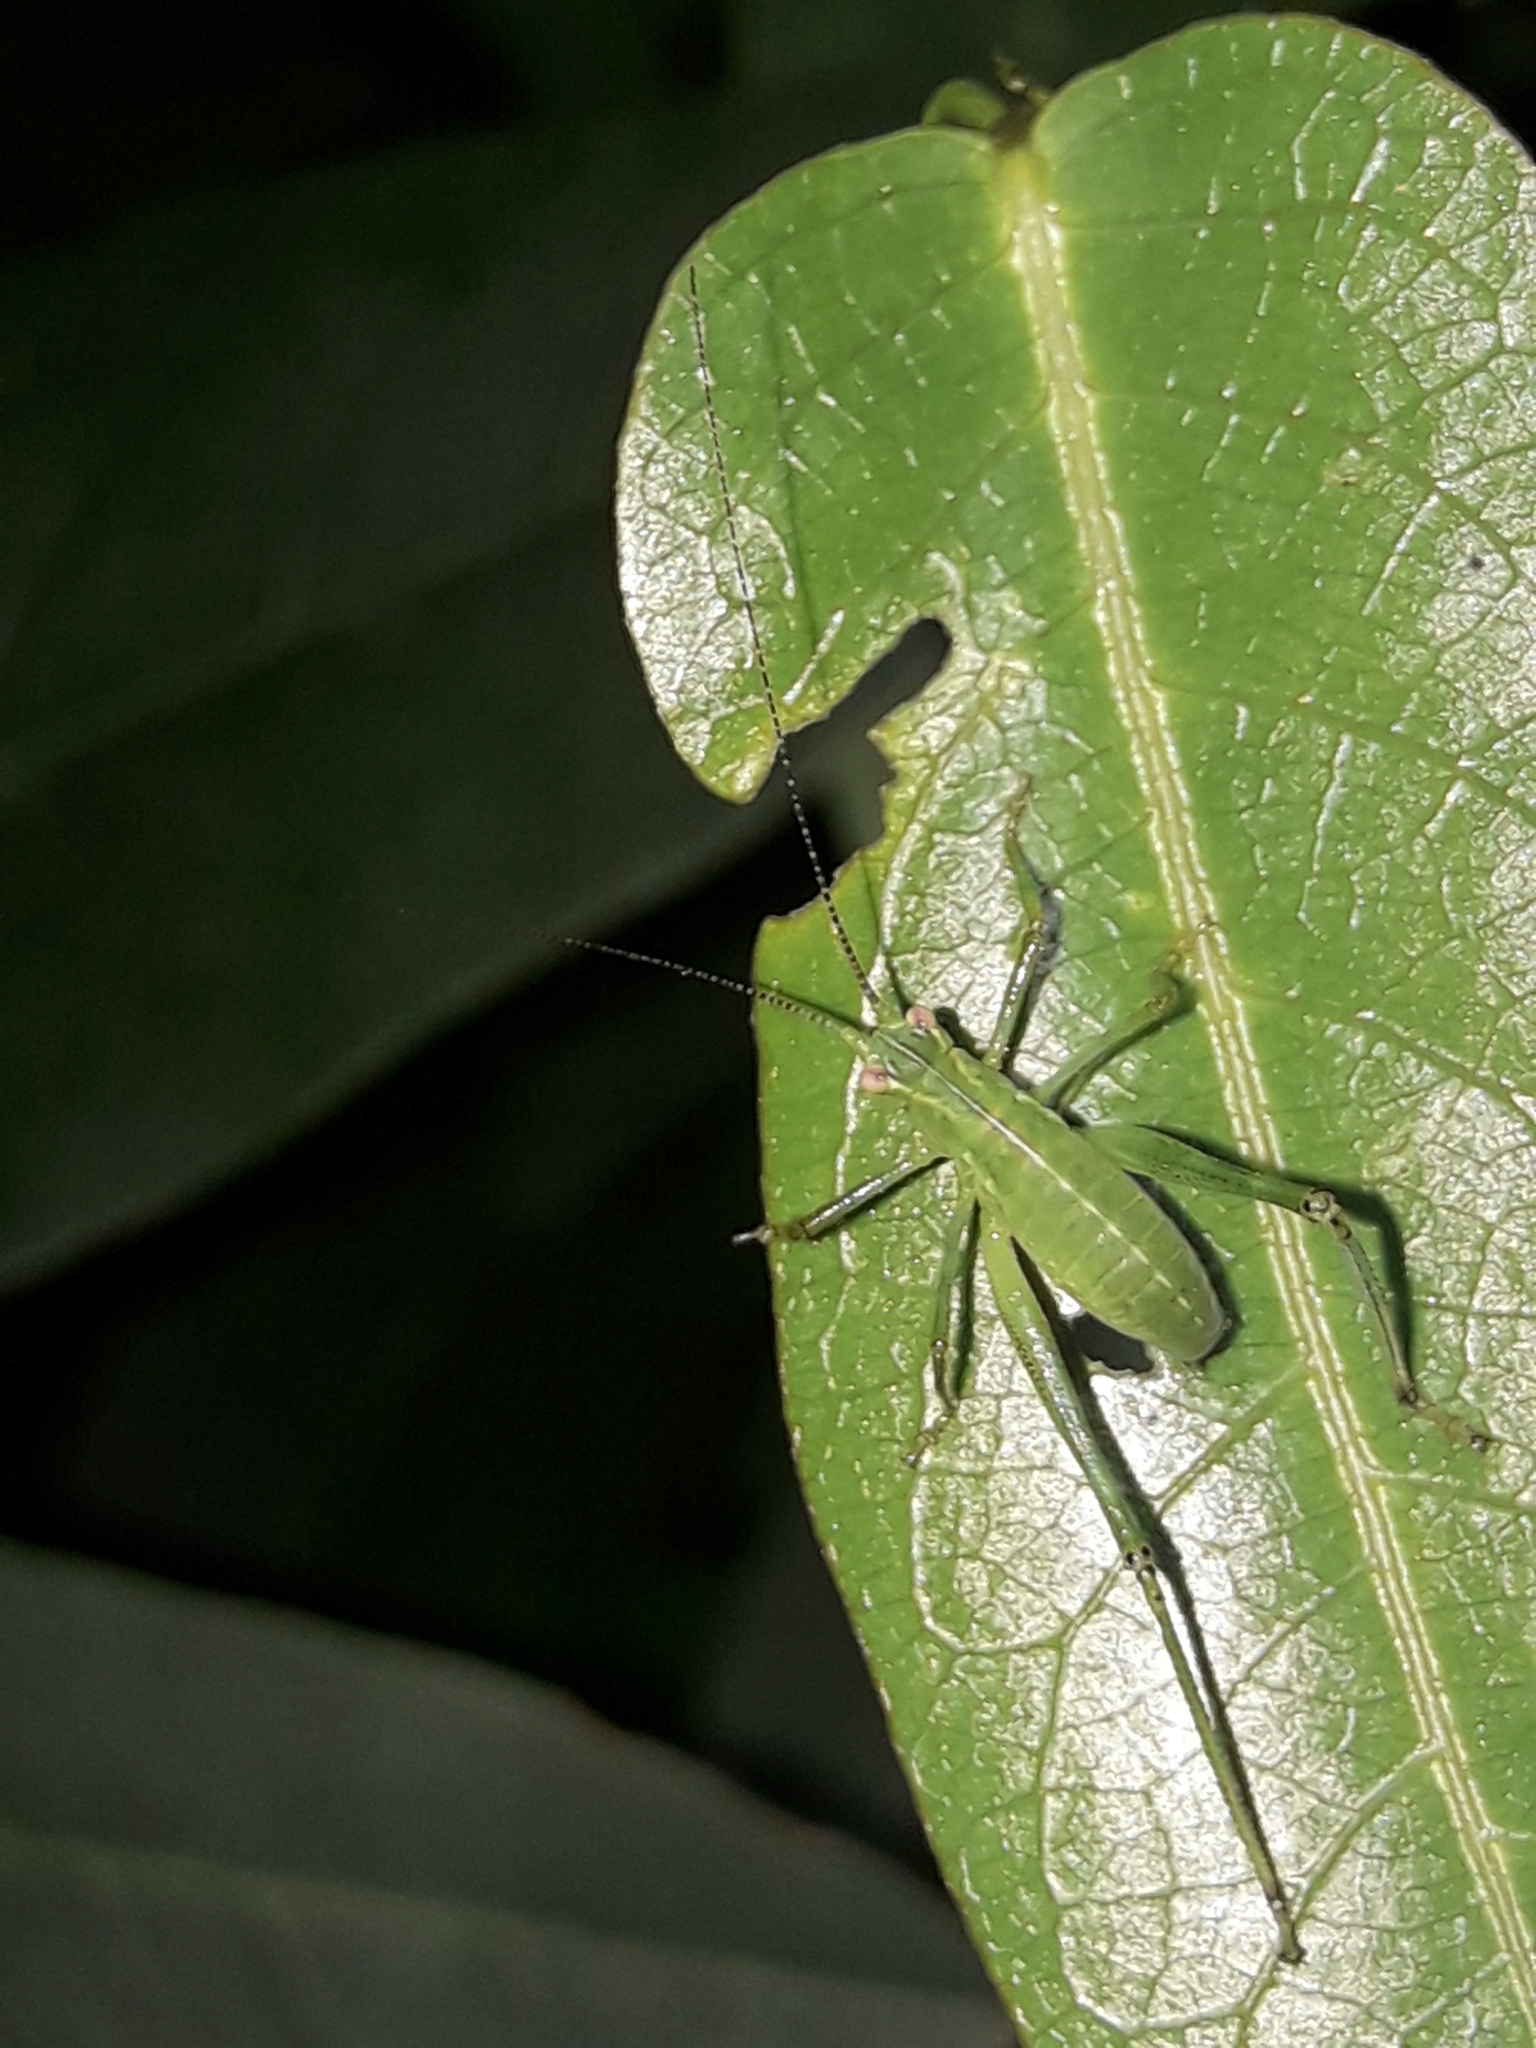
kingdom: Animalia
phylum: Arthropoda
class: Insecta
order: Orthoptera
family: Tettigoniidae
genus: Caedicia
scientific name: Caedicia simplex
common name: Common garden katydid
